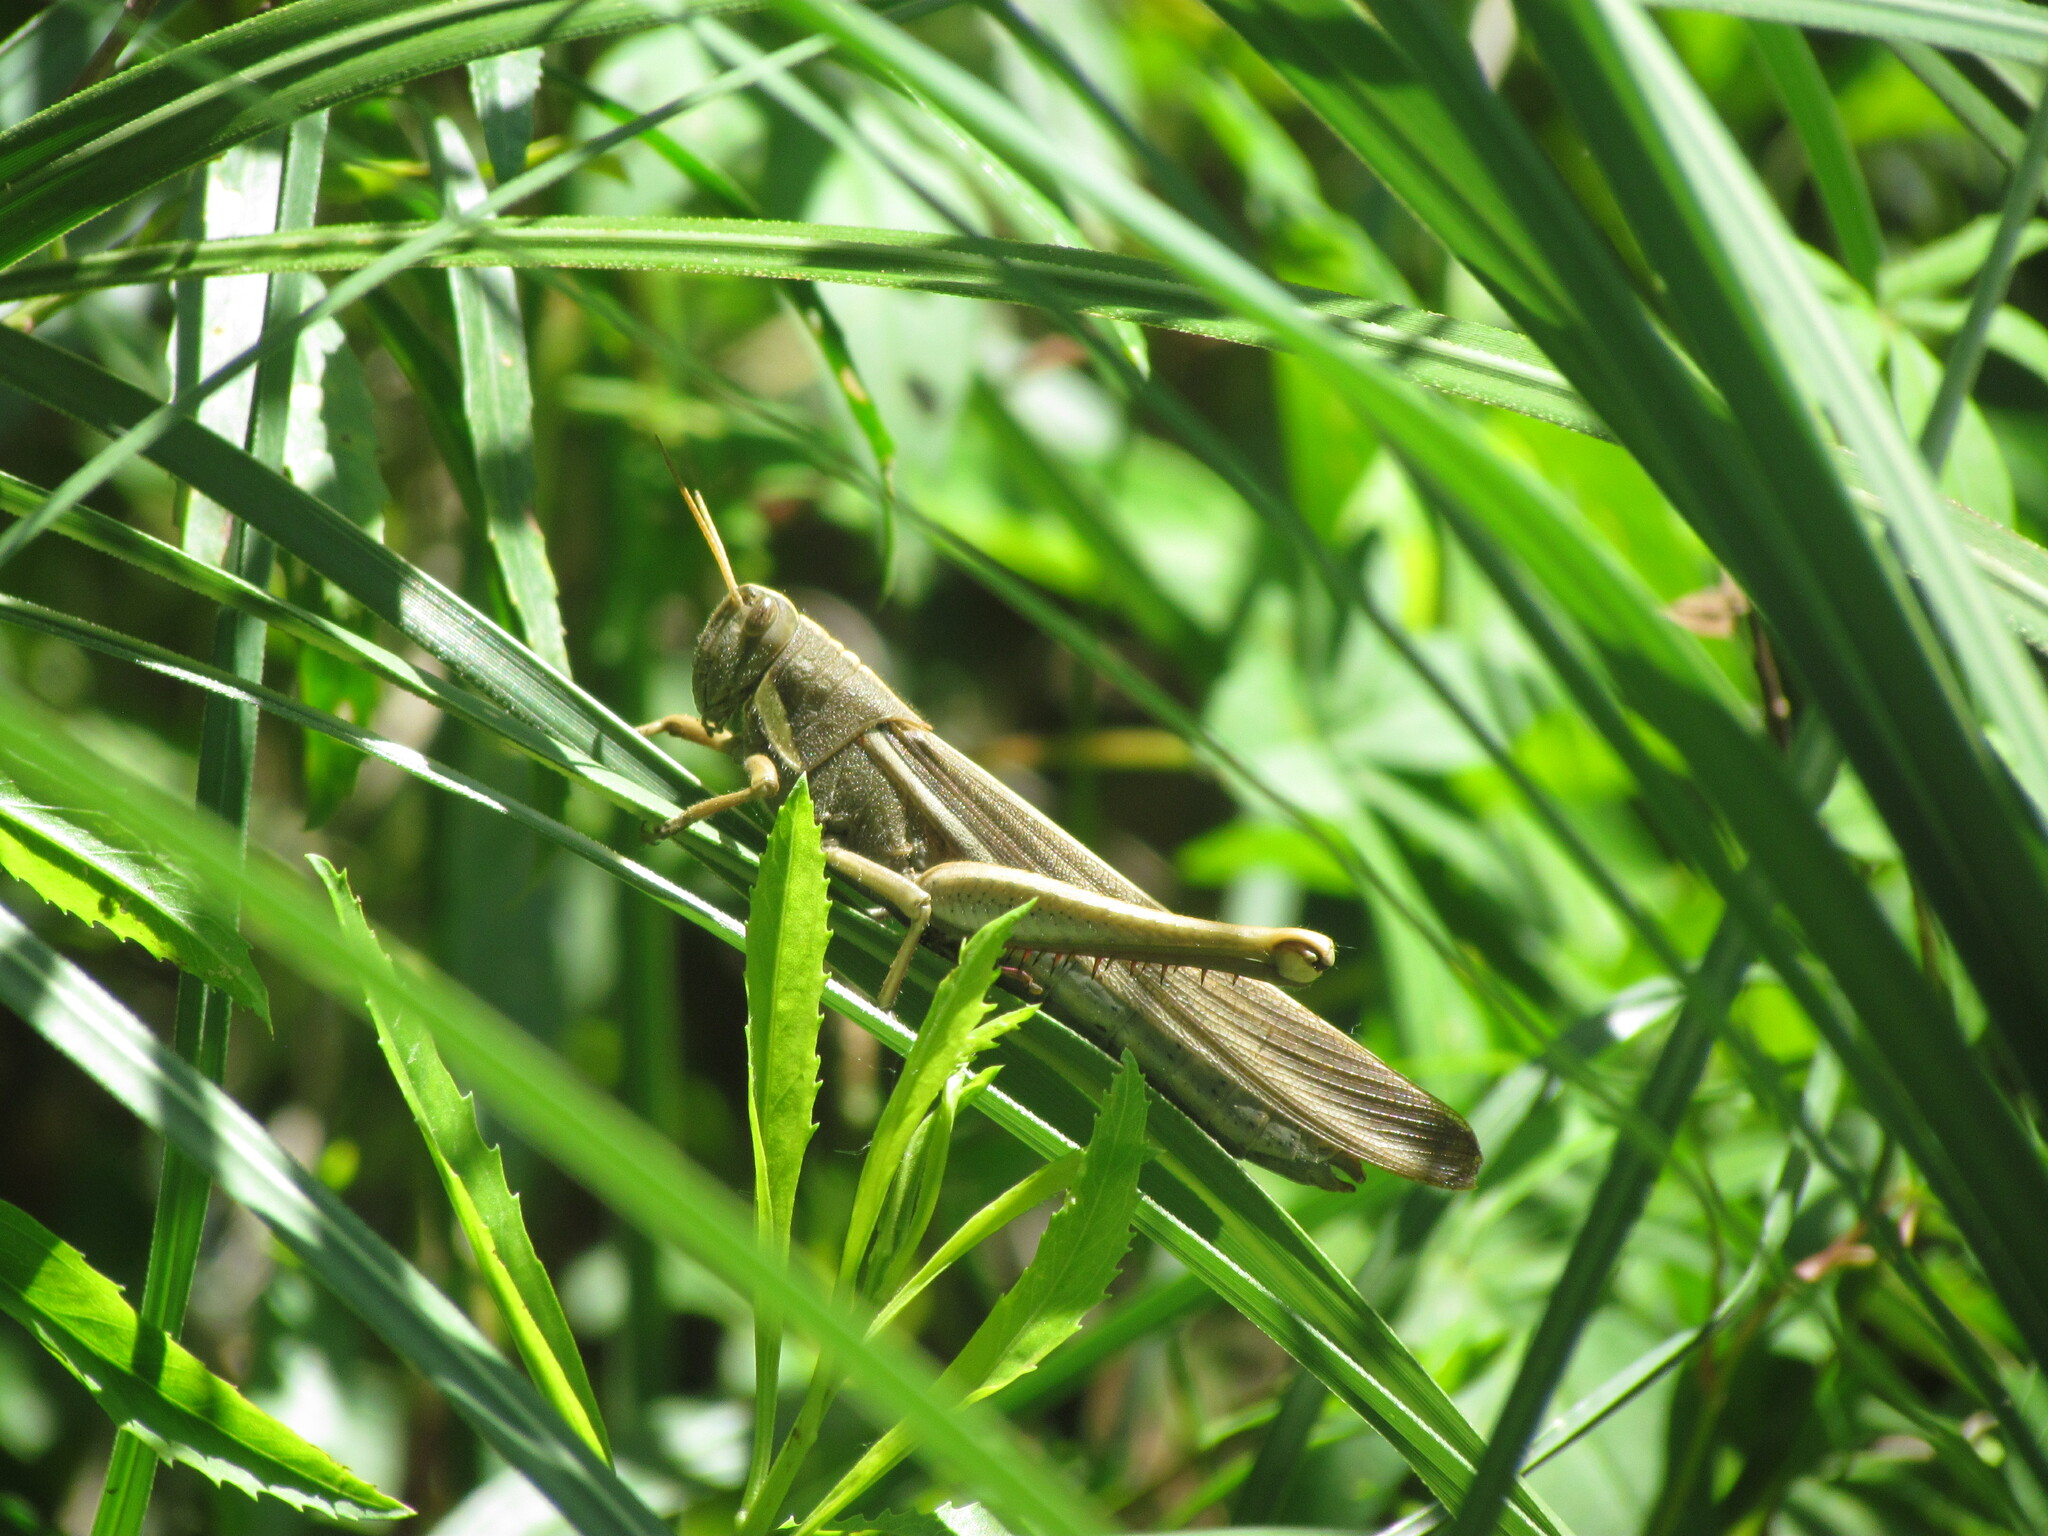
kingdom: Animalia
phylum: Arthropoda
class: Insecta
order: Orthoptera
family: Acrididae
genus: Schistocerca
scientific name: Schistocerca flavofasciata
